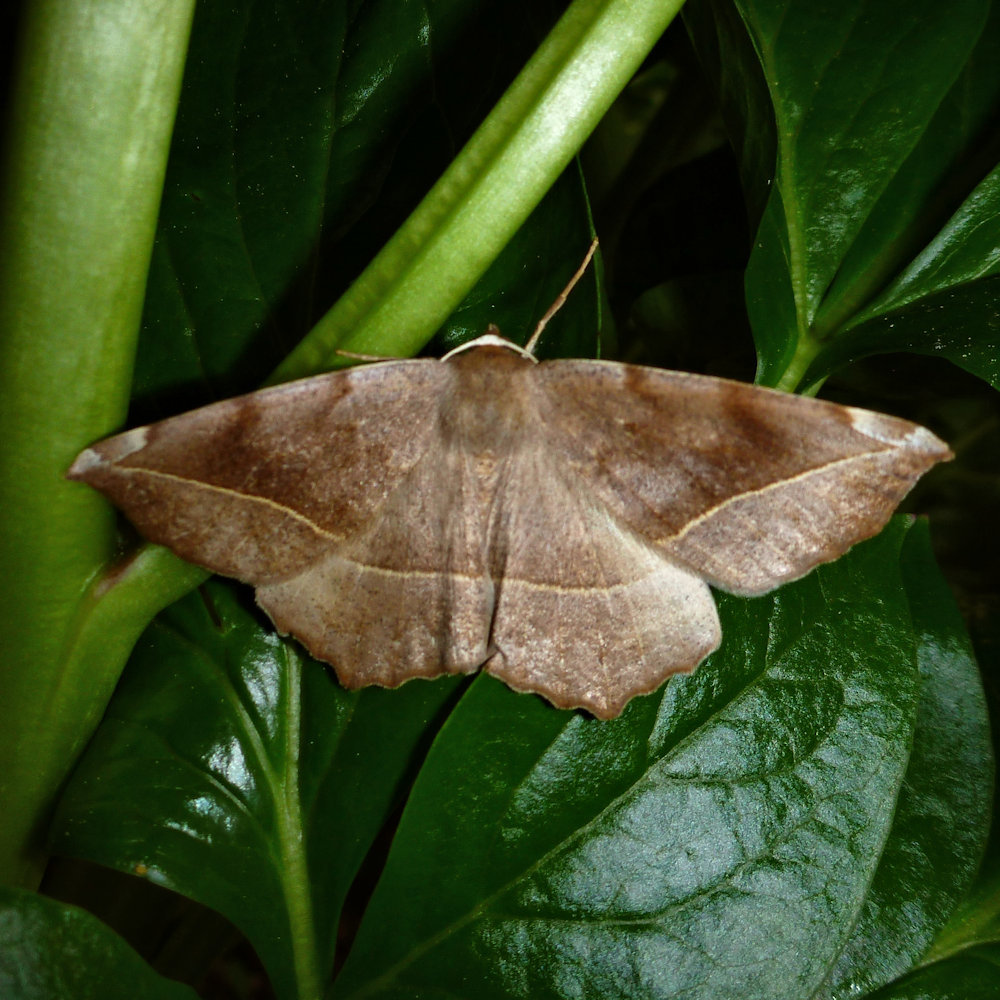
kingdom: Animalia
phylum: Arthropoda
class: Insecta
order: Lepidoptera
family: Geometridae
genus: Eutrapela
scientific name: Eutrapela clemataria
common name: Curved-toothed geometer
